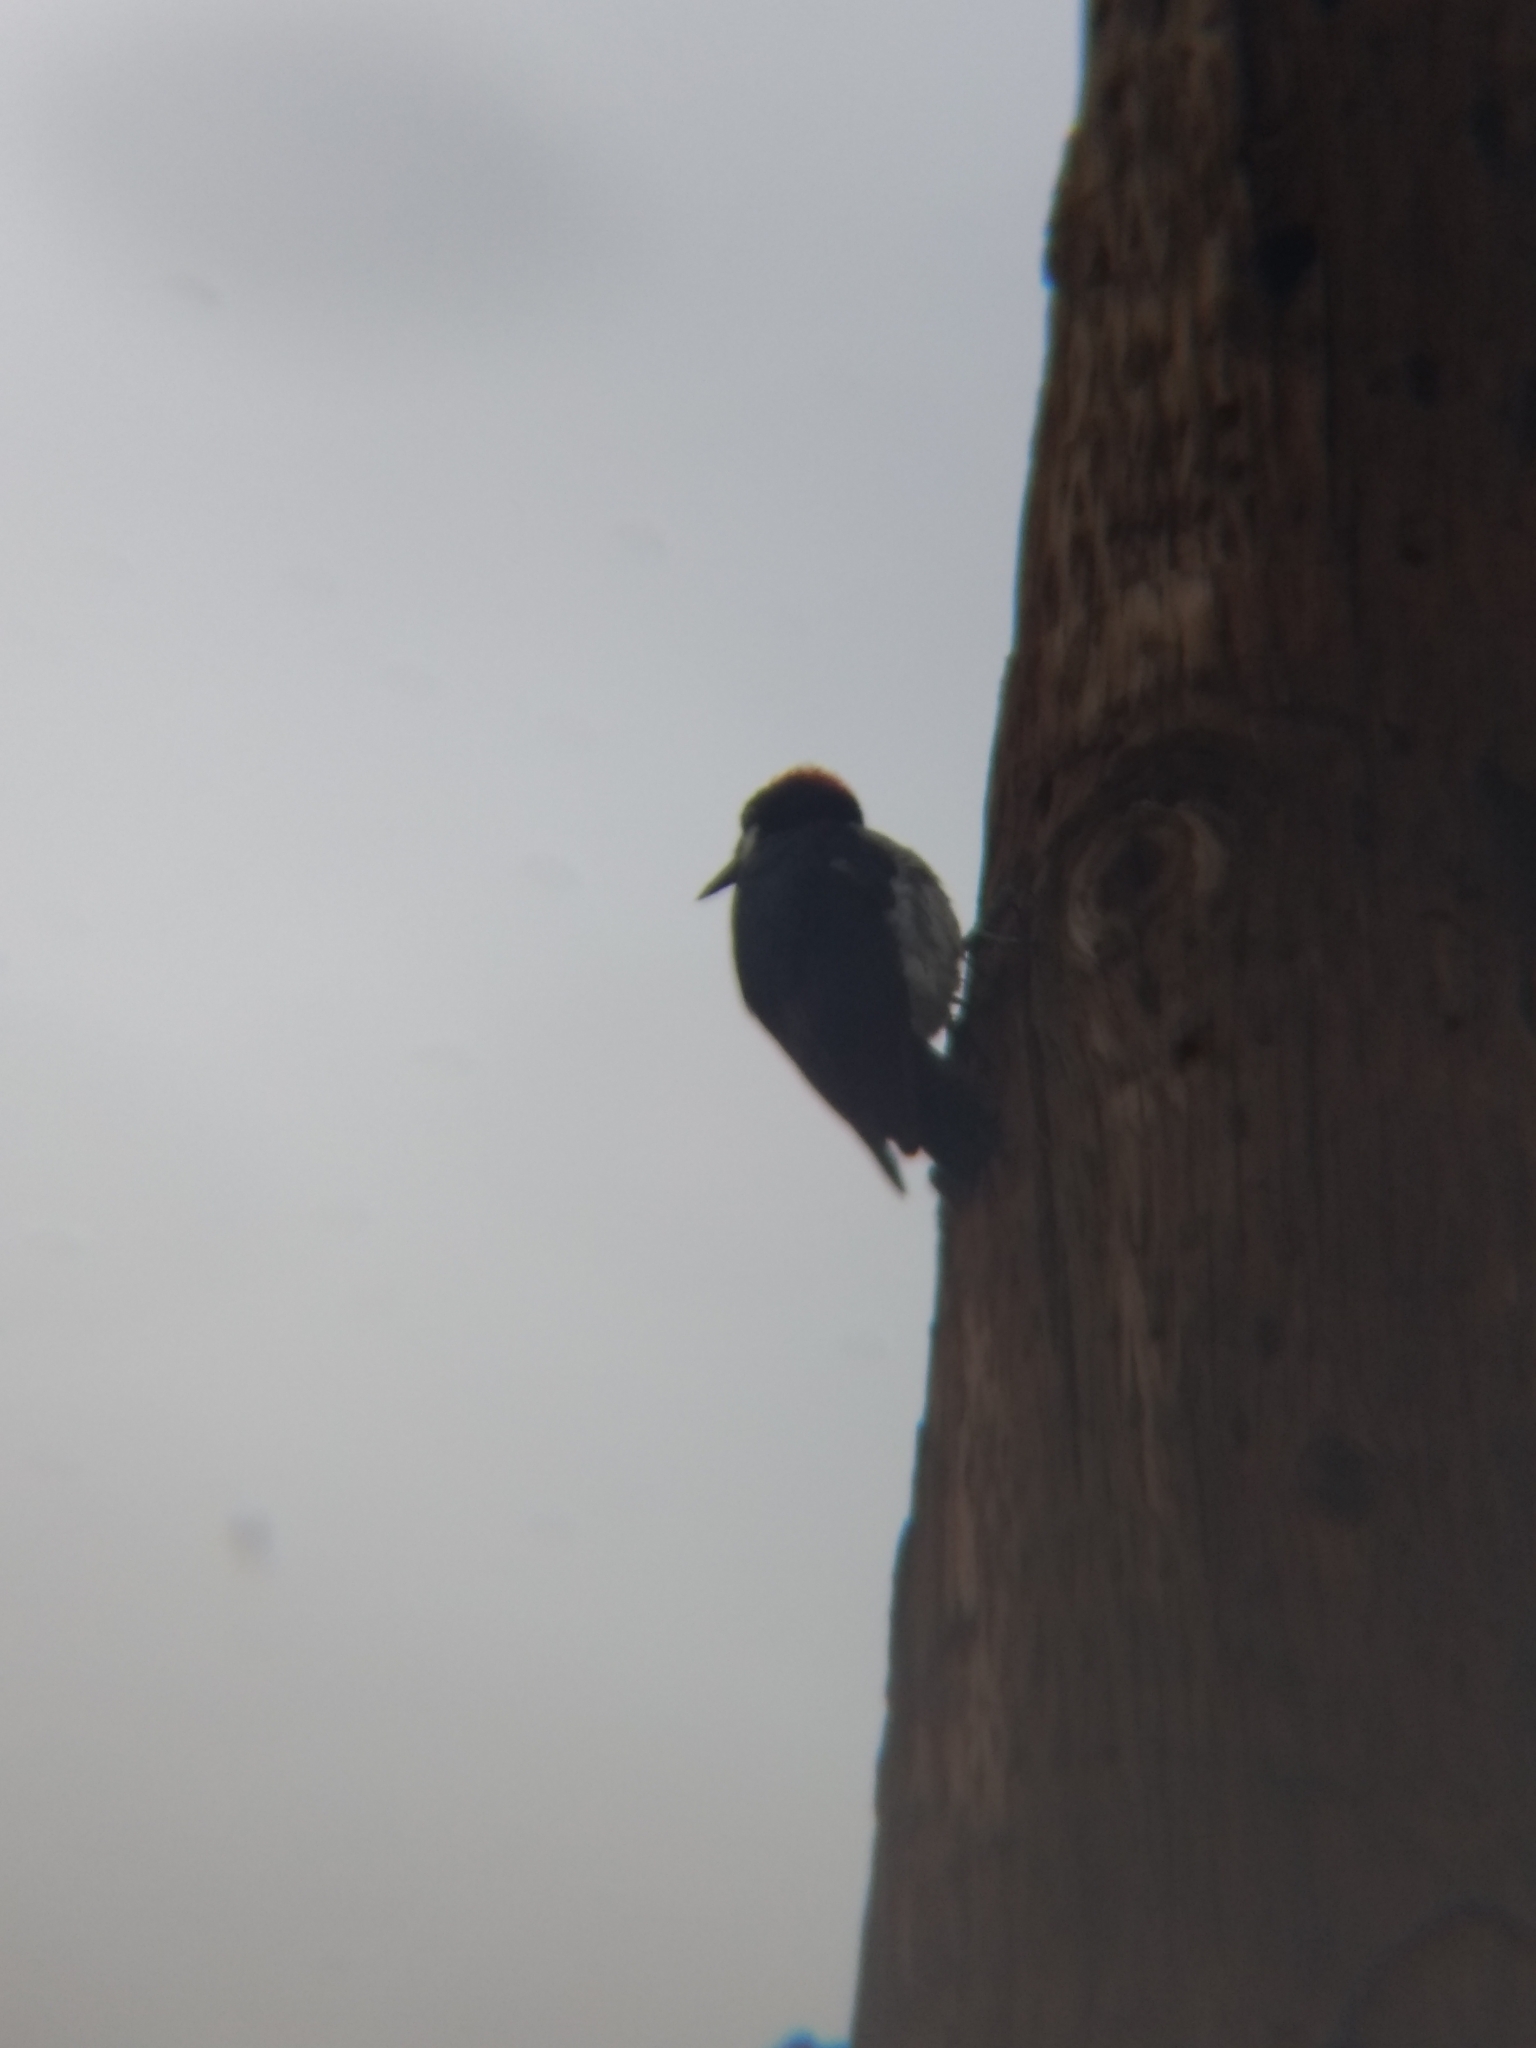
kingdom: Animalia
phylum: Chordata
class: Aves
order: Piciformes
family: Picidae
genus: Melanerpes
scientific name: Melanerpes formicivorus
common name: Acorn woodpecker
